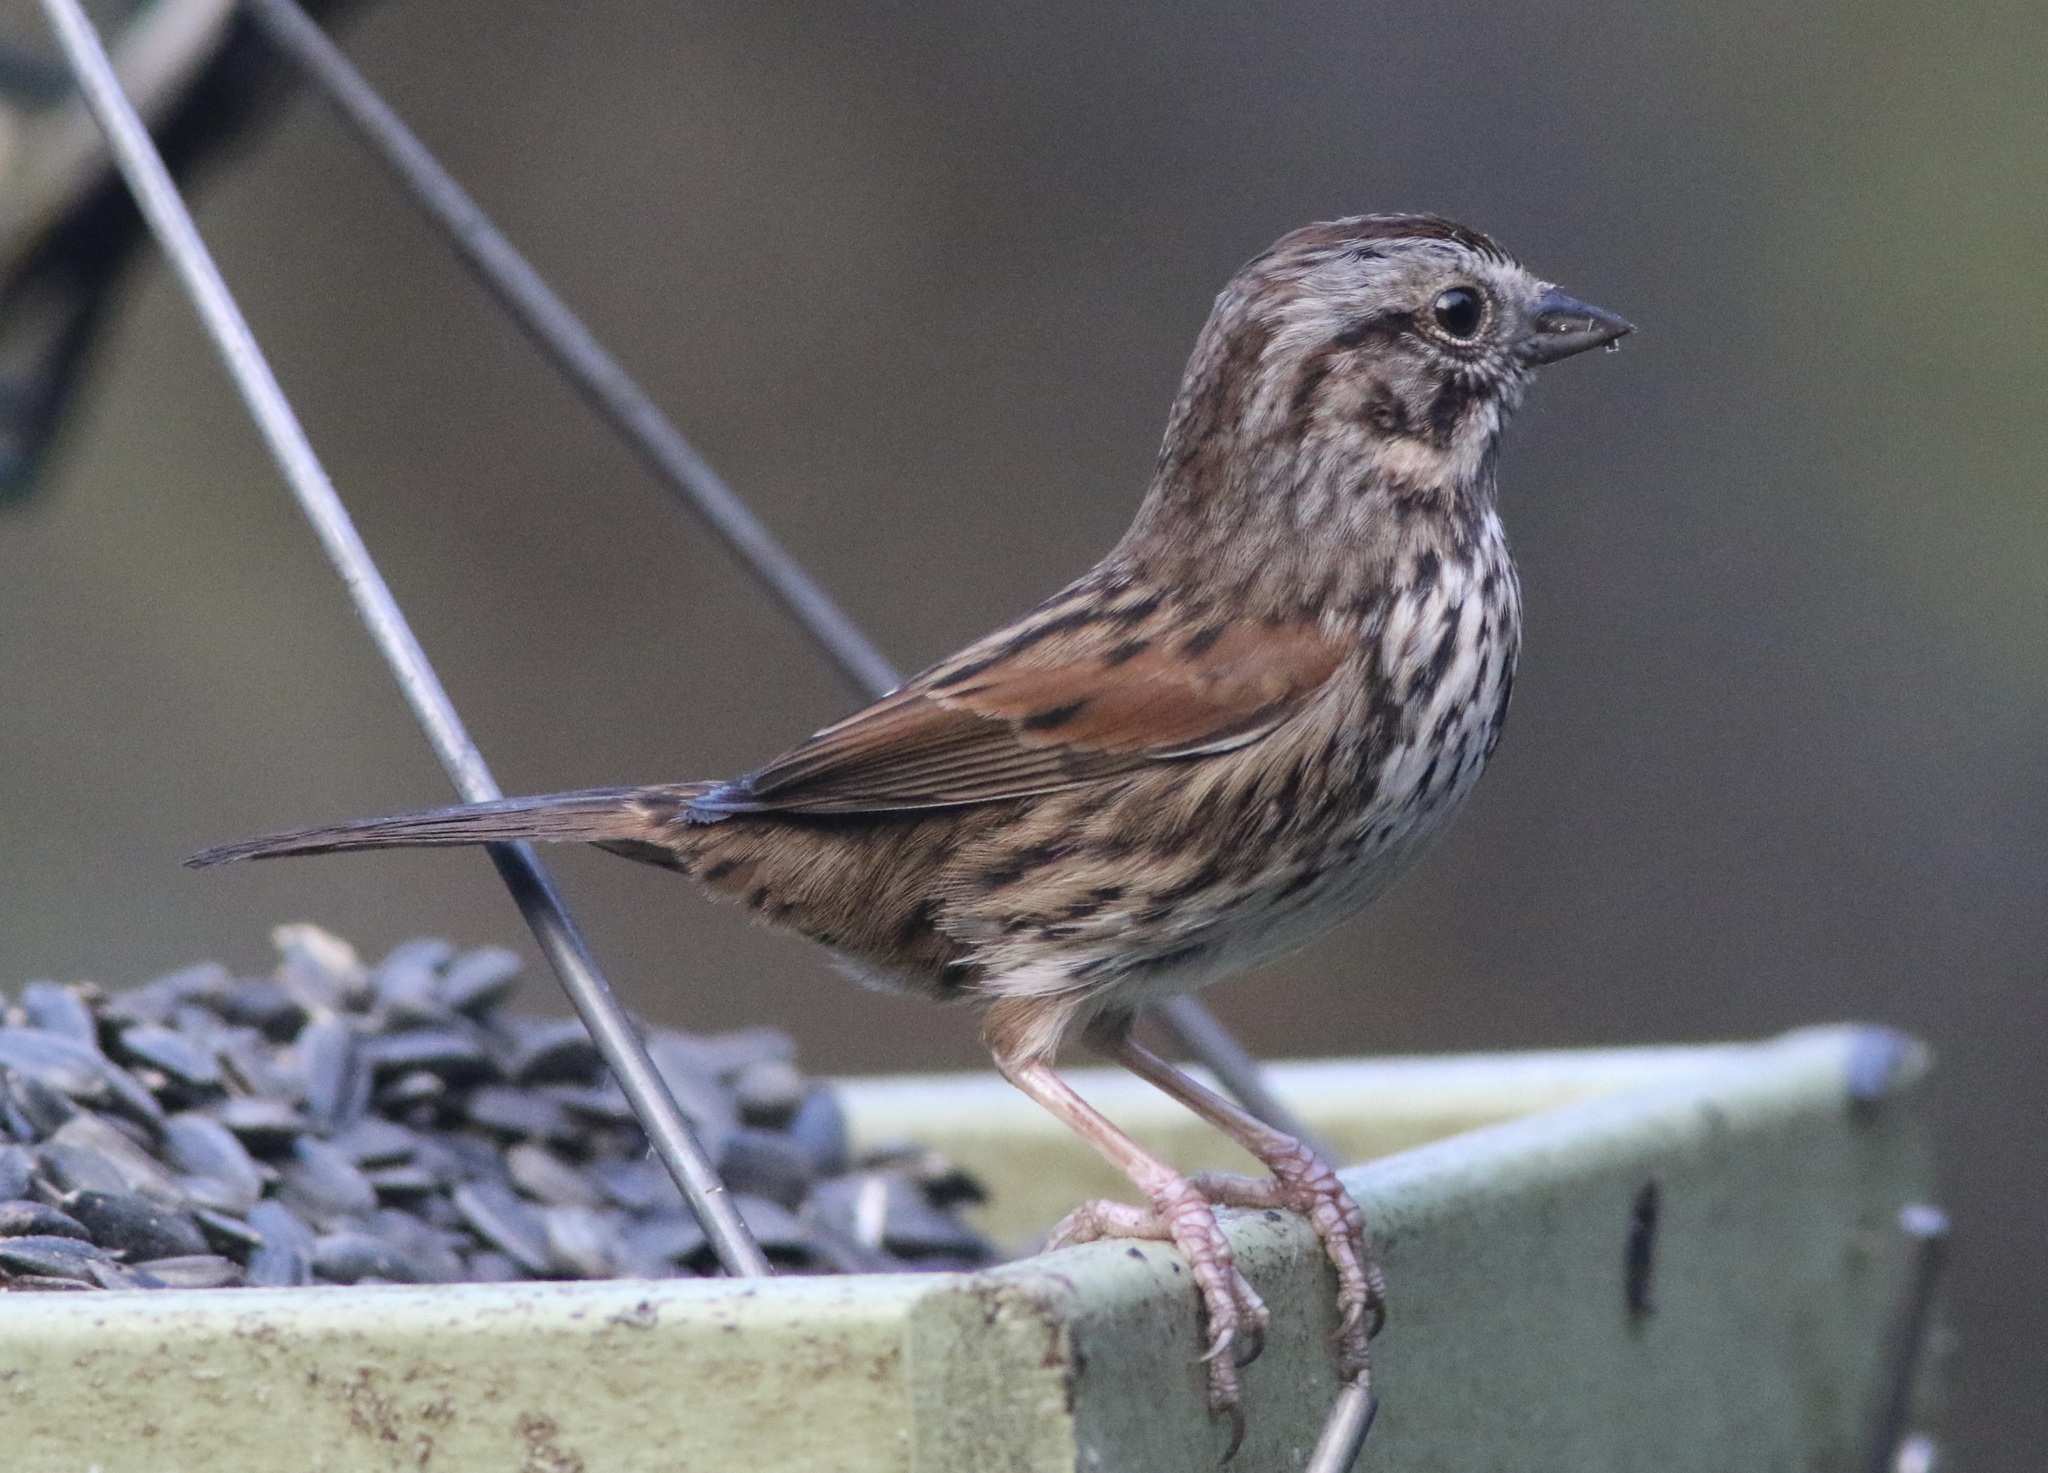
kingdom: Animalia
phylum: Chordata
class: Aves
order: Passeriformes
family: Passerellidae
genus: Melospiza
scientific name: Melospiza melodia
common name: Song sparrow
